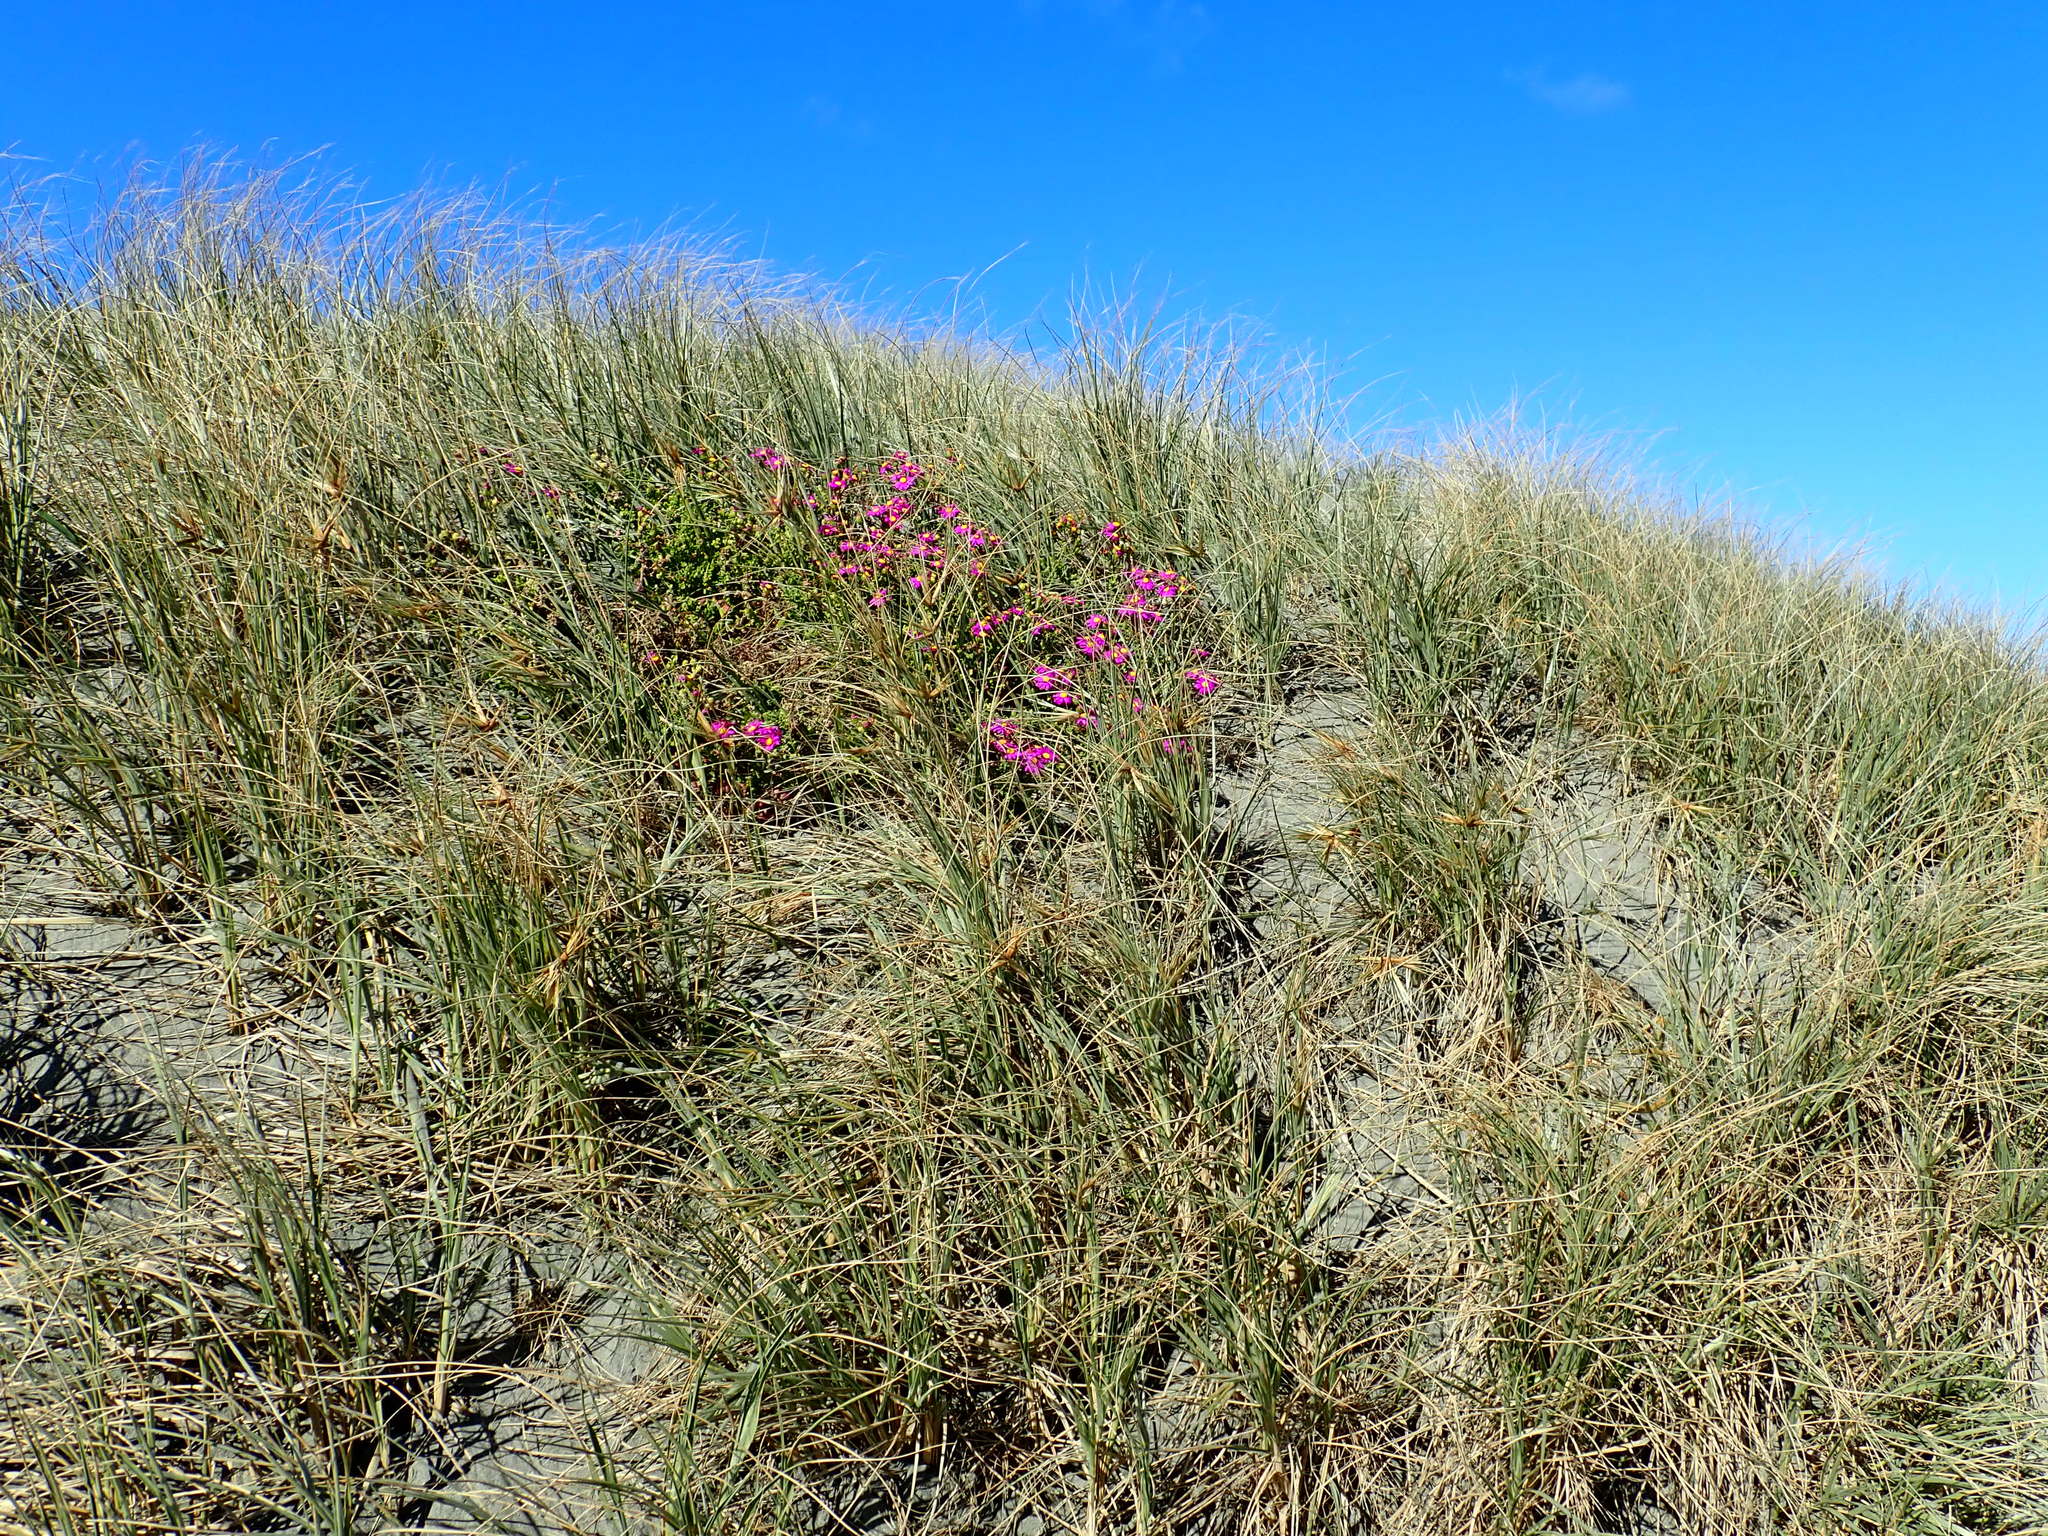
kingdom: Plantae
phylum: Tracheophyta
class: Magnoliopsida
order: Asterales
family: Asteraceae
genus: Senecio
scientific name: Senecio elegans
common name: Purple groundsel
